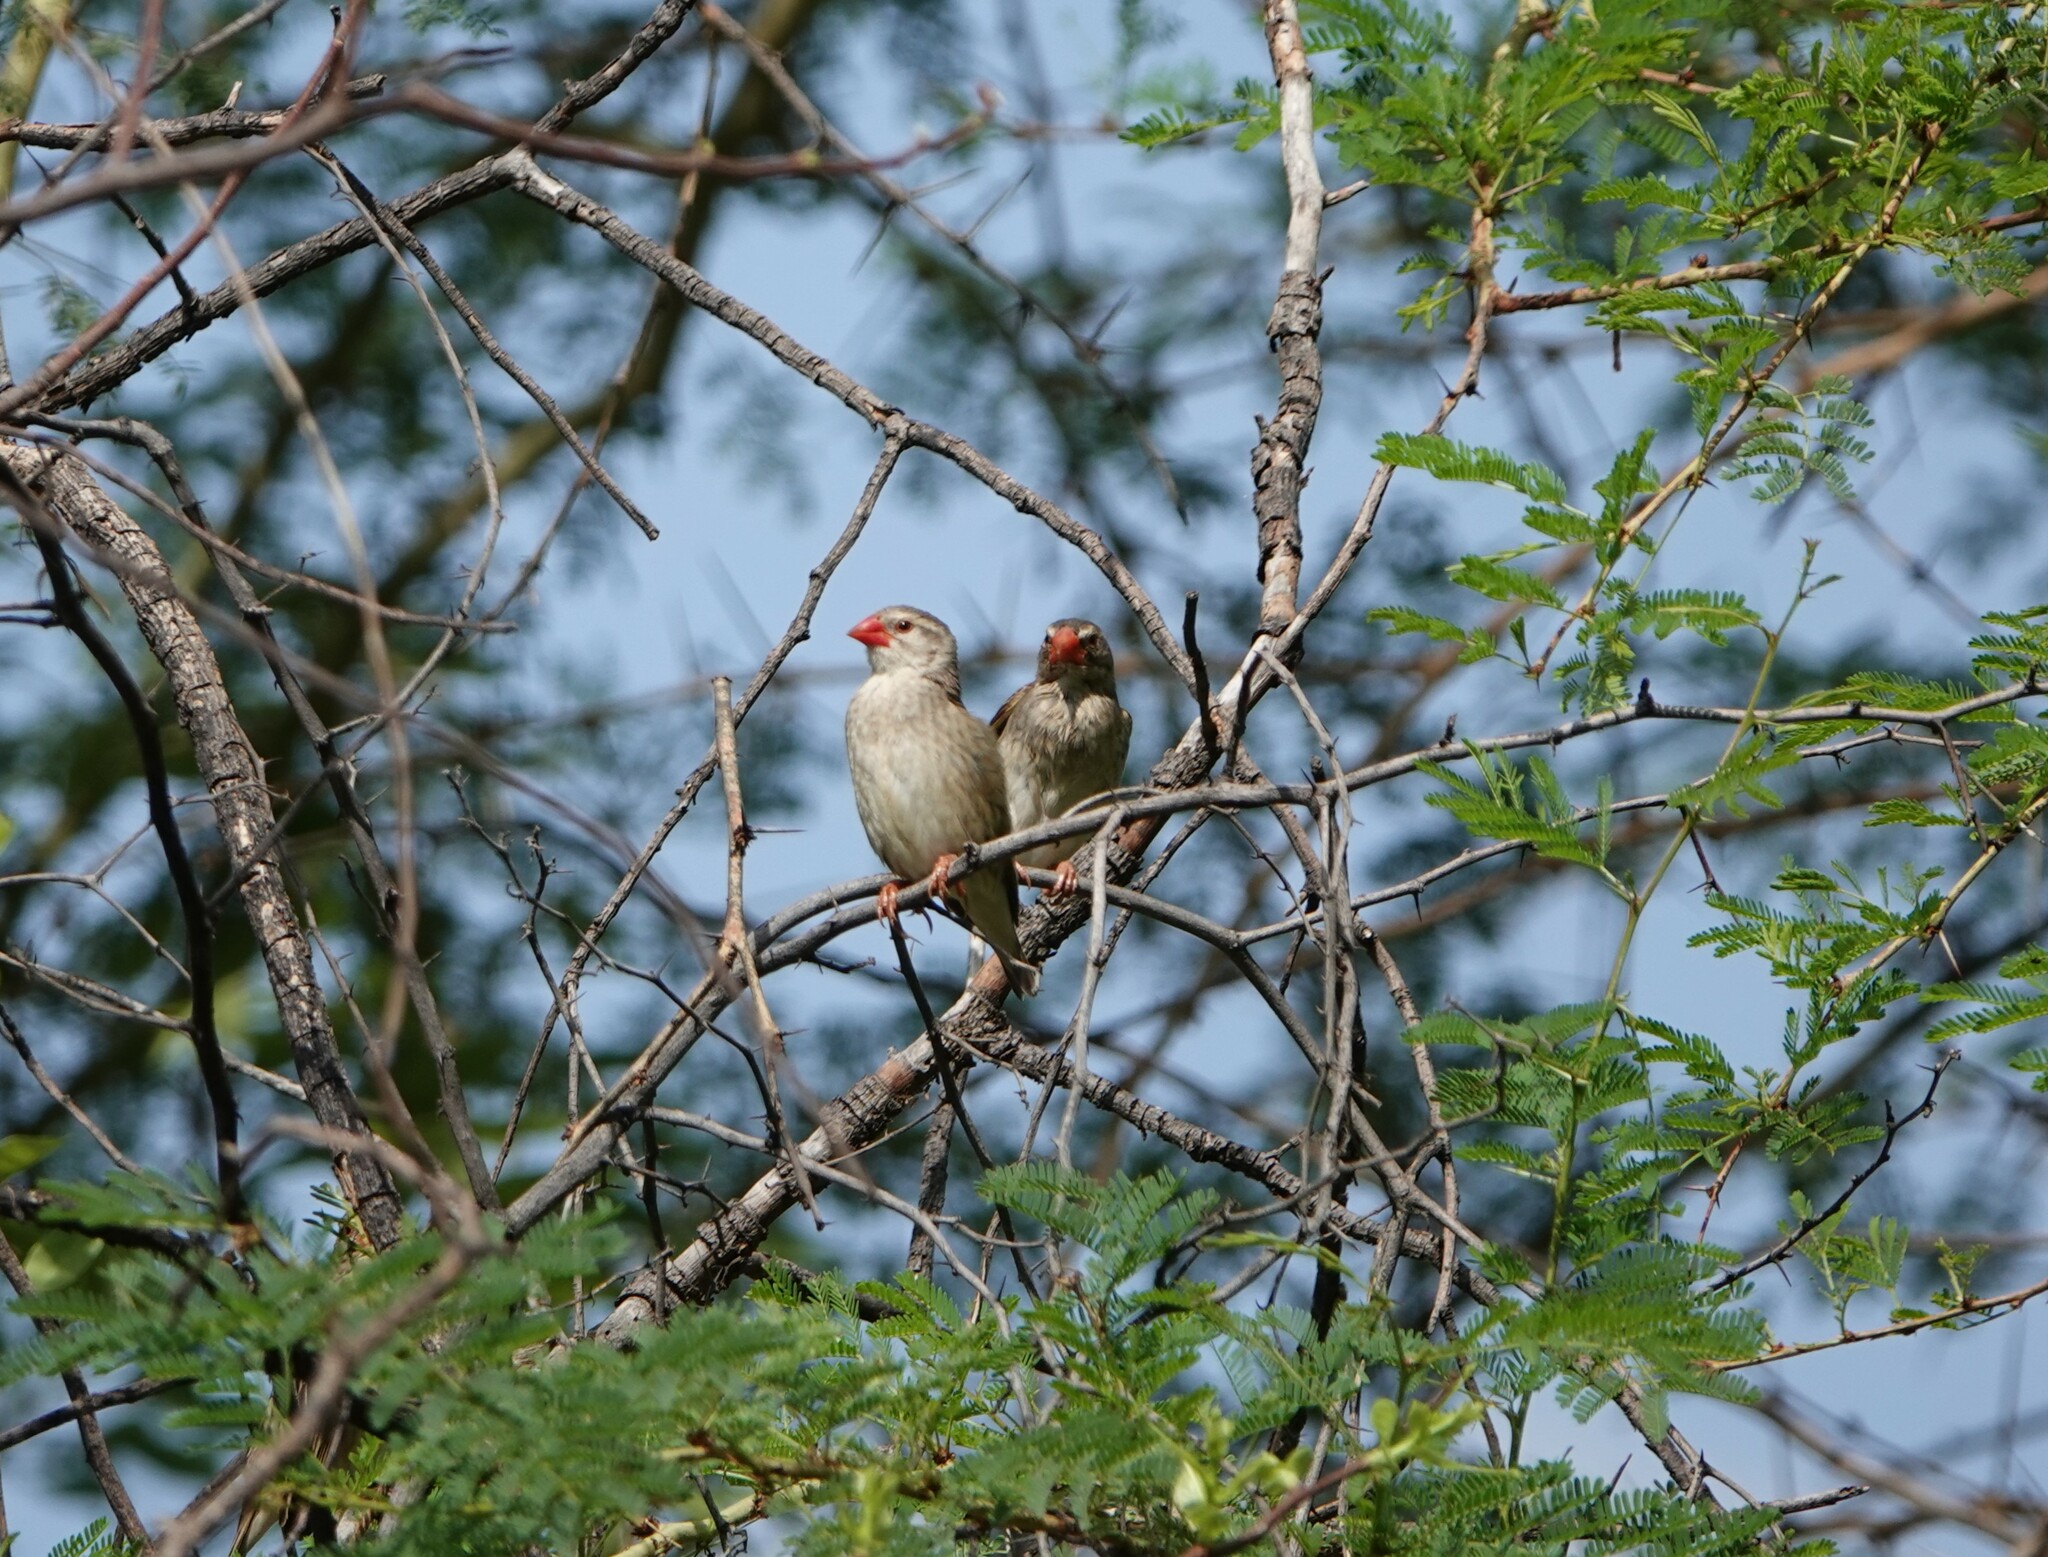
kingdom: Animalia
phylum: Chordata
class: Aves
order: Passeriformes
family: Ploceidae
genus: Quelea
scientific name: Quelea quelea
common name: Red-billed quelea
